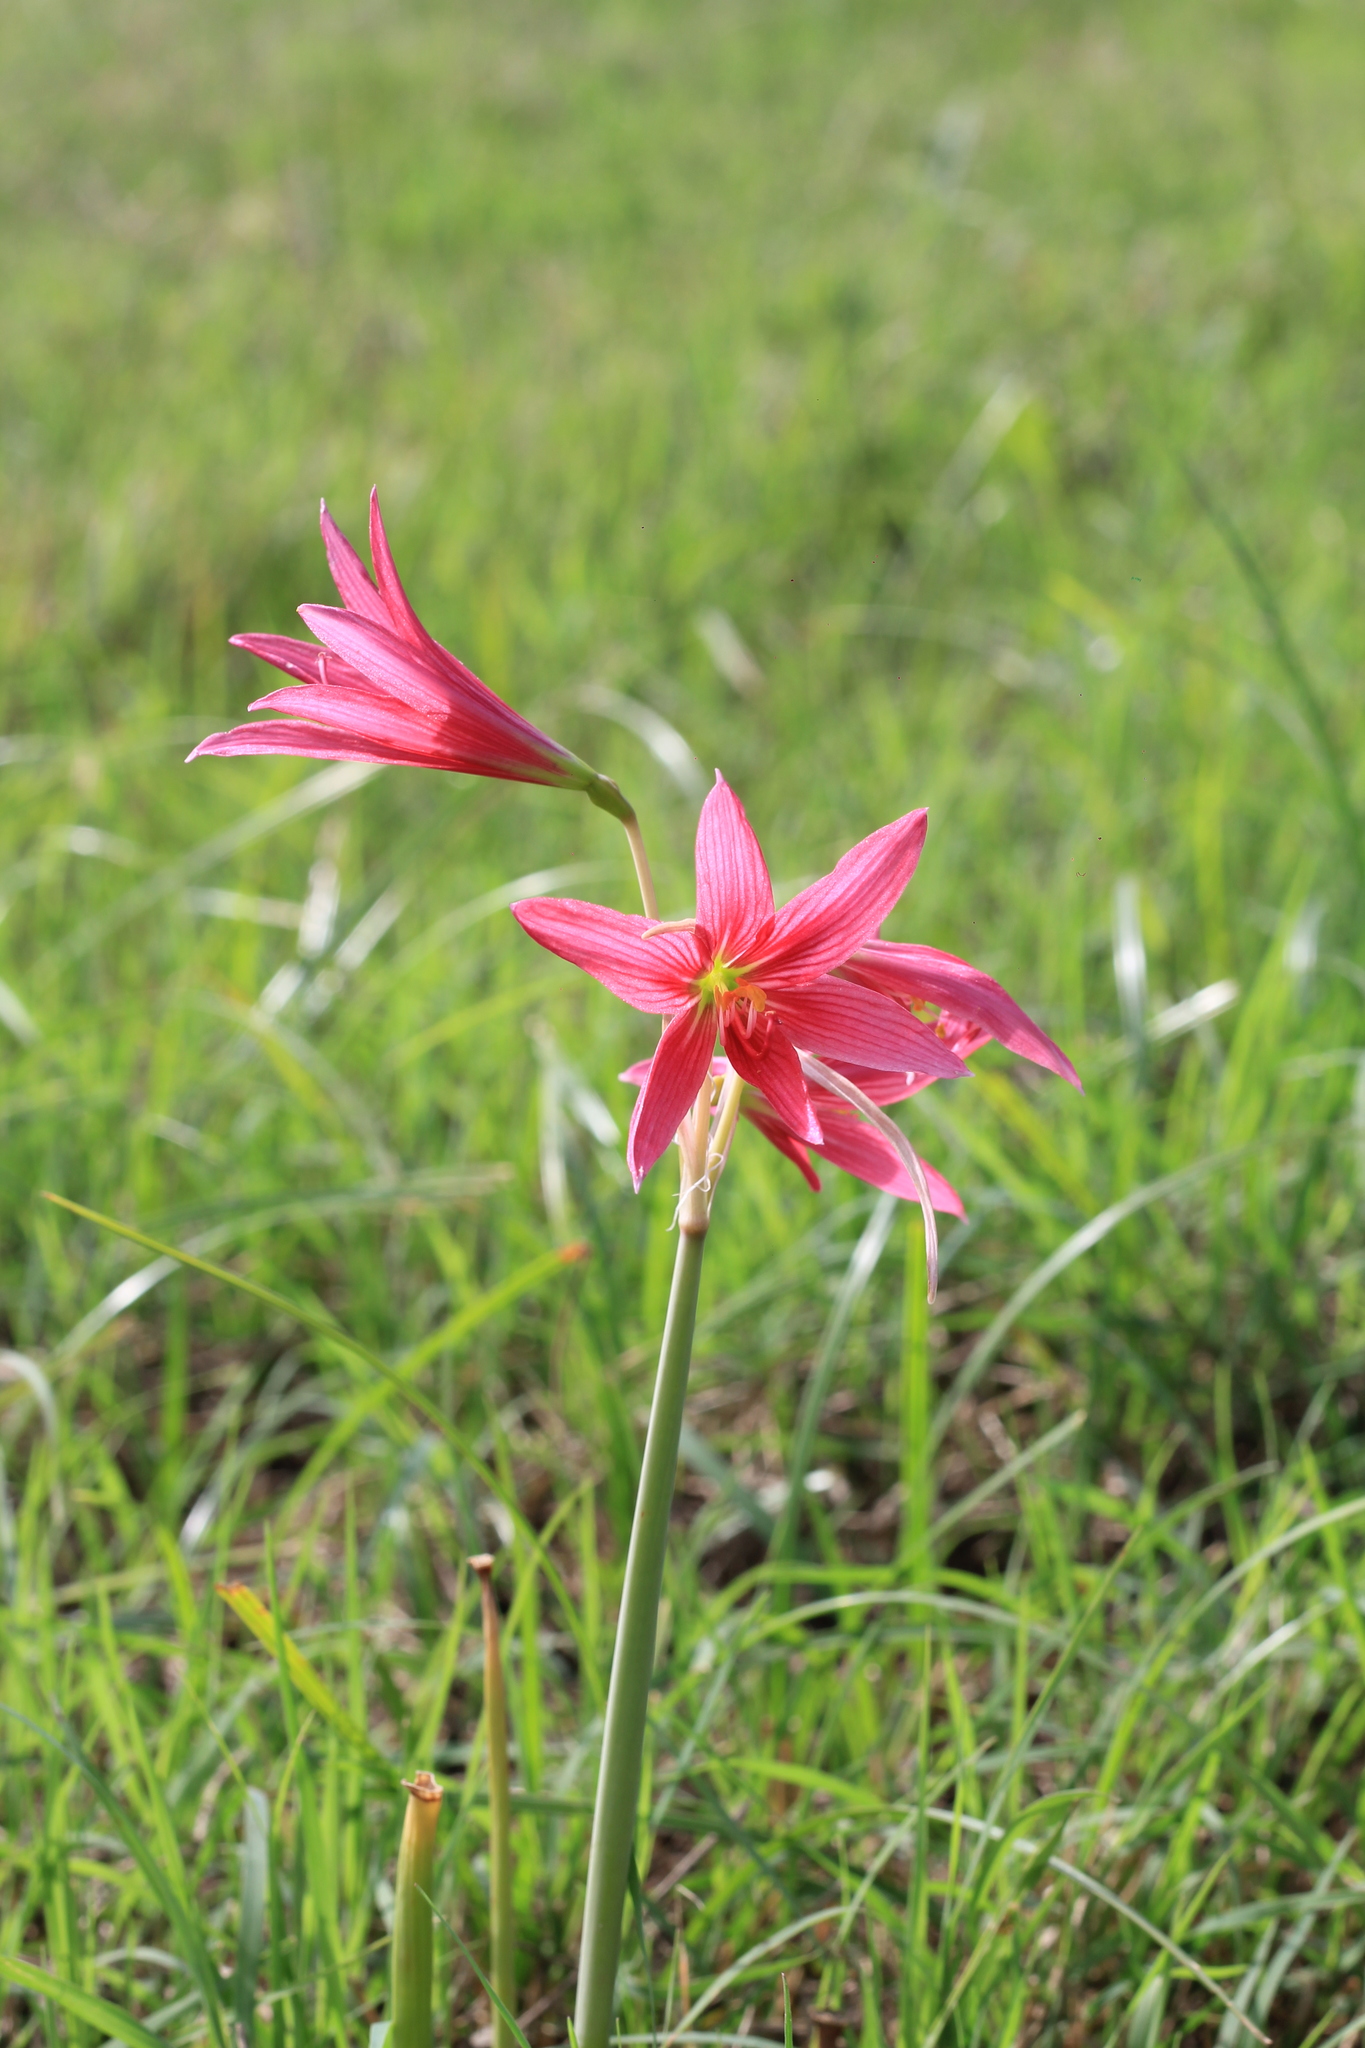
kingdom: Plantae
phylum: Tracheophyta
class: Liliopsida
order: Asparagales
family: Amaryllidaceae
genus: Zephyranthes
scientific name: Zephyranthes bifida
